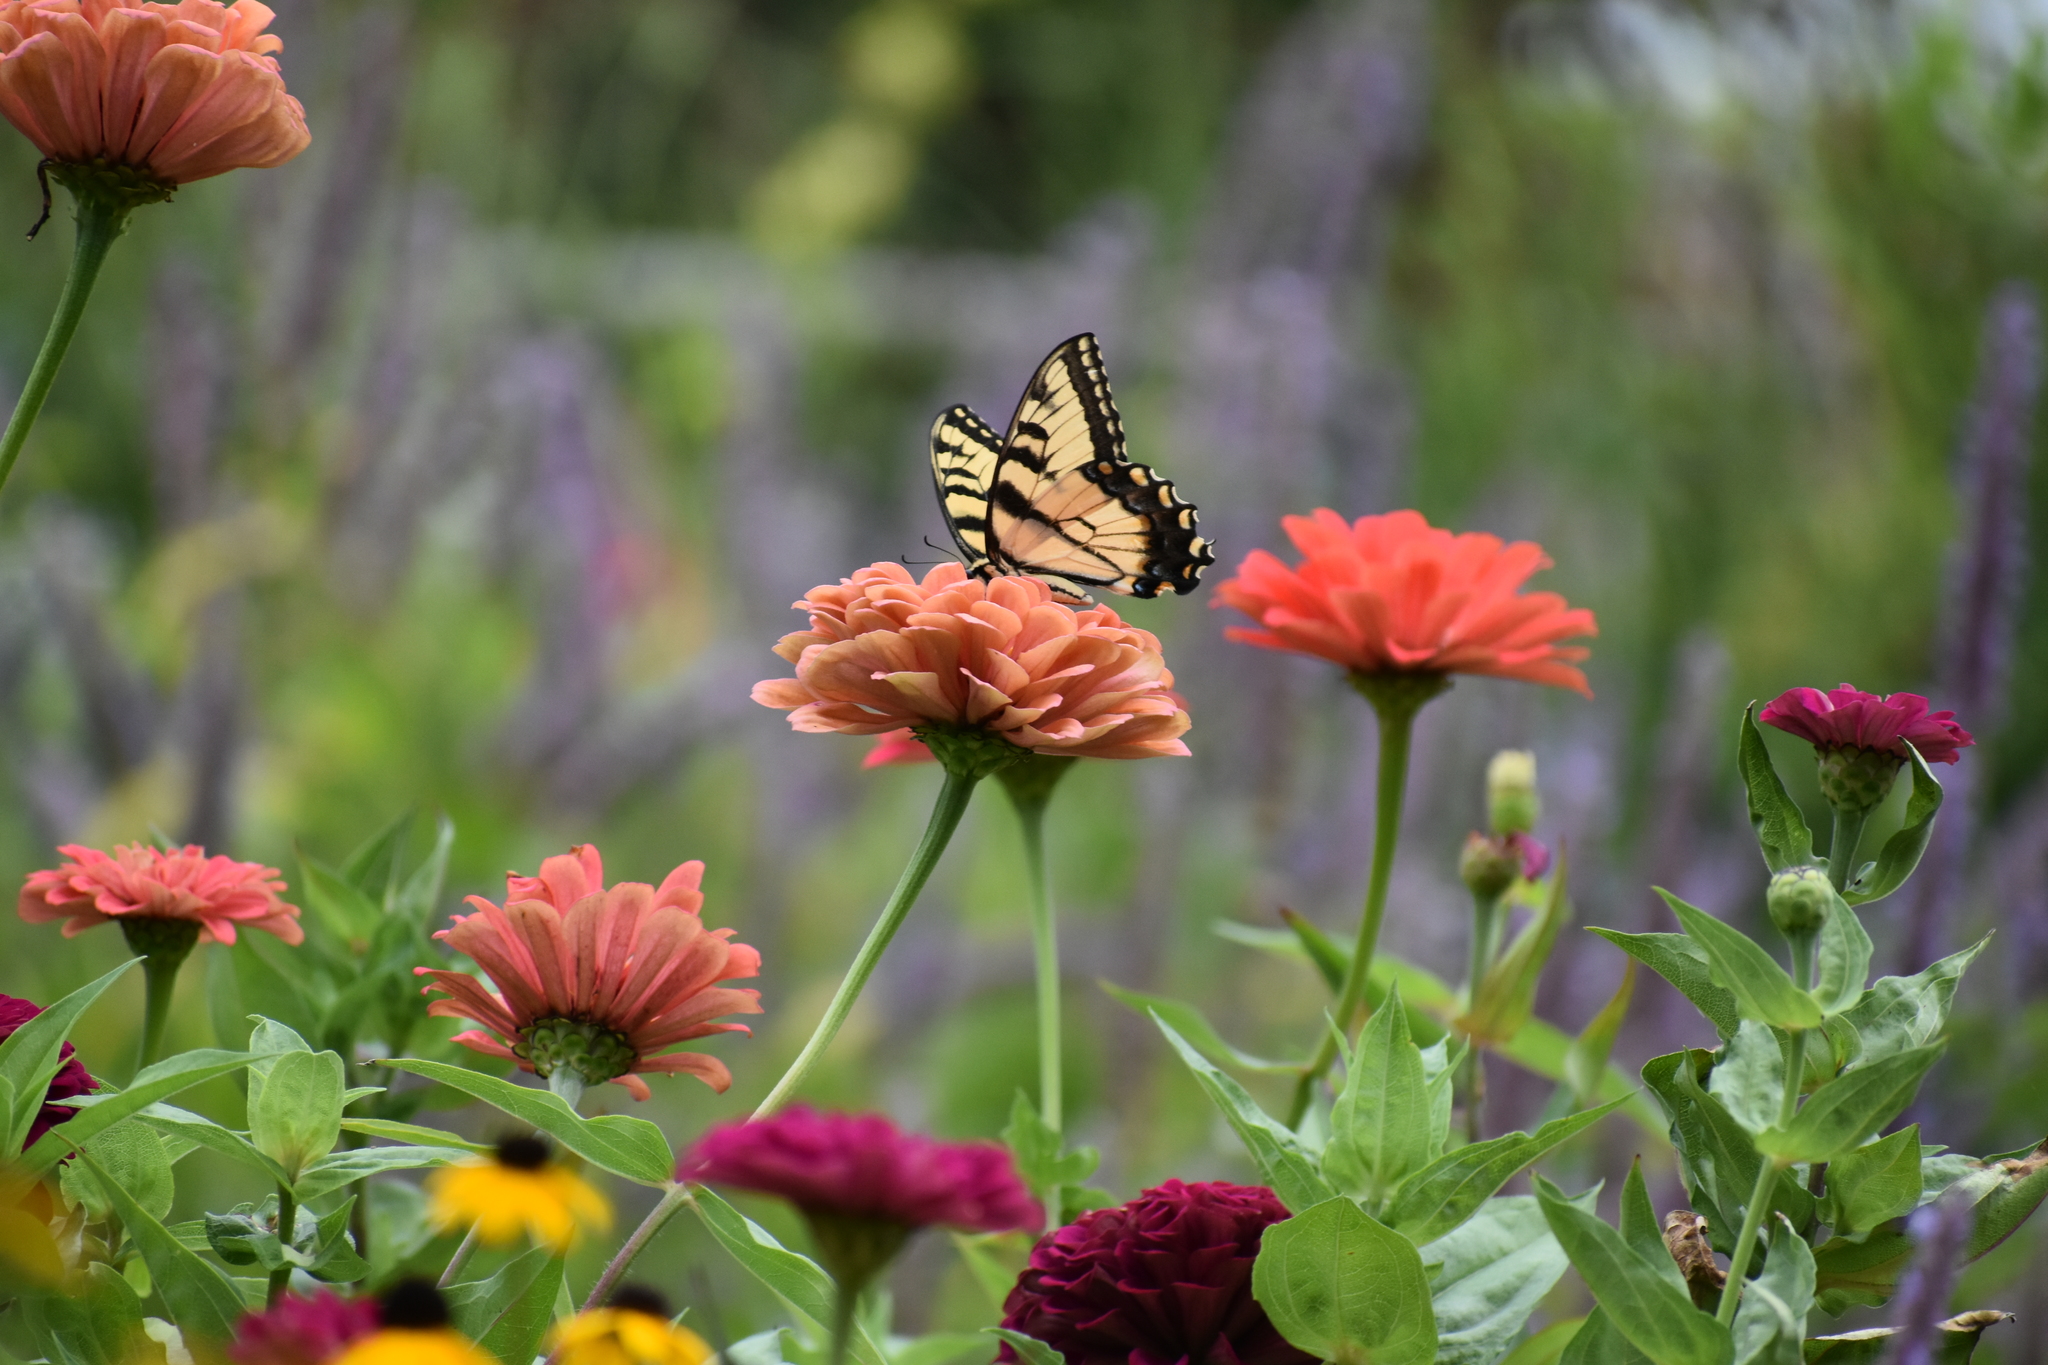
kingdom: Animalia
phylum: Arthropoda
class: Insecta
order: Lepidoptera
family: Papilionidae
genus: Papilio
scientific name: Papilio glaucus
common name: Tiger swallowtail
